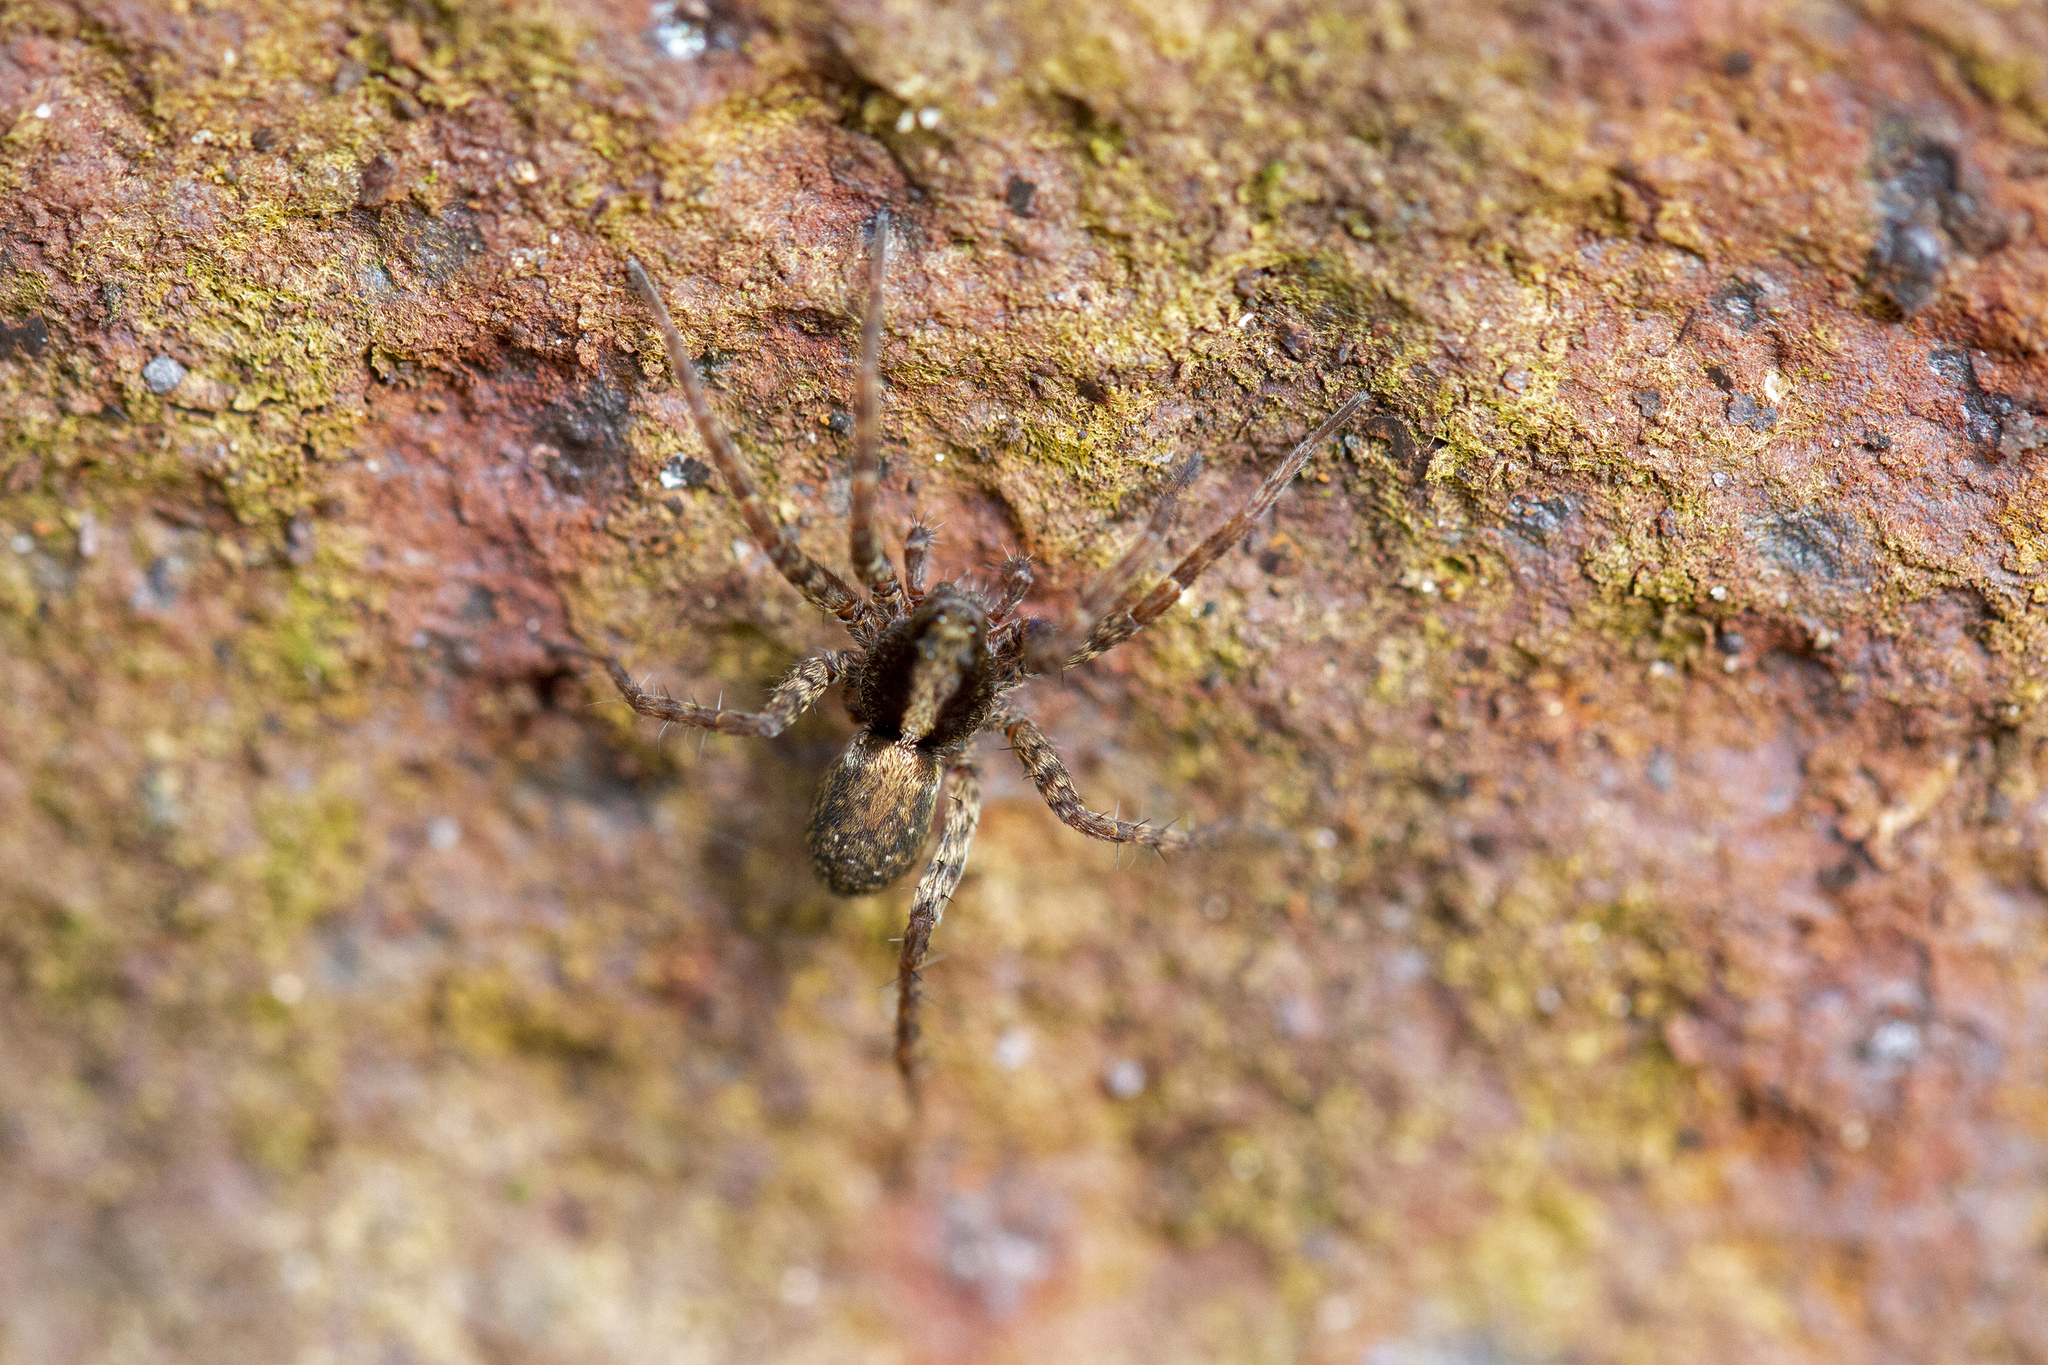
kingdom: Animalia
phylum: Arthropoda
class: Arachnida
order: Araneae
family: Lycosidae
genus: Pardosa
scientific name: Pardosa saltans
